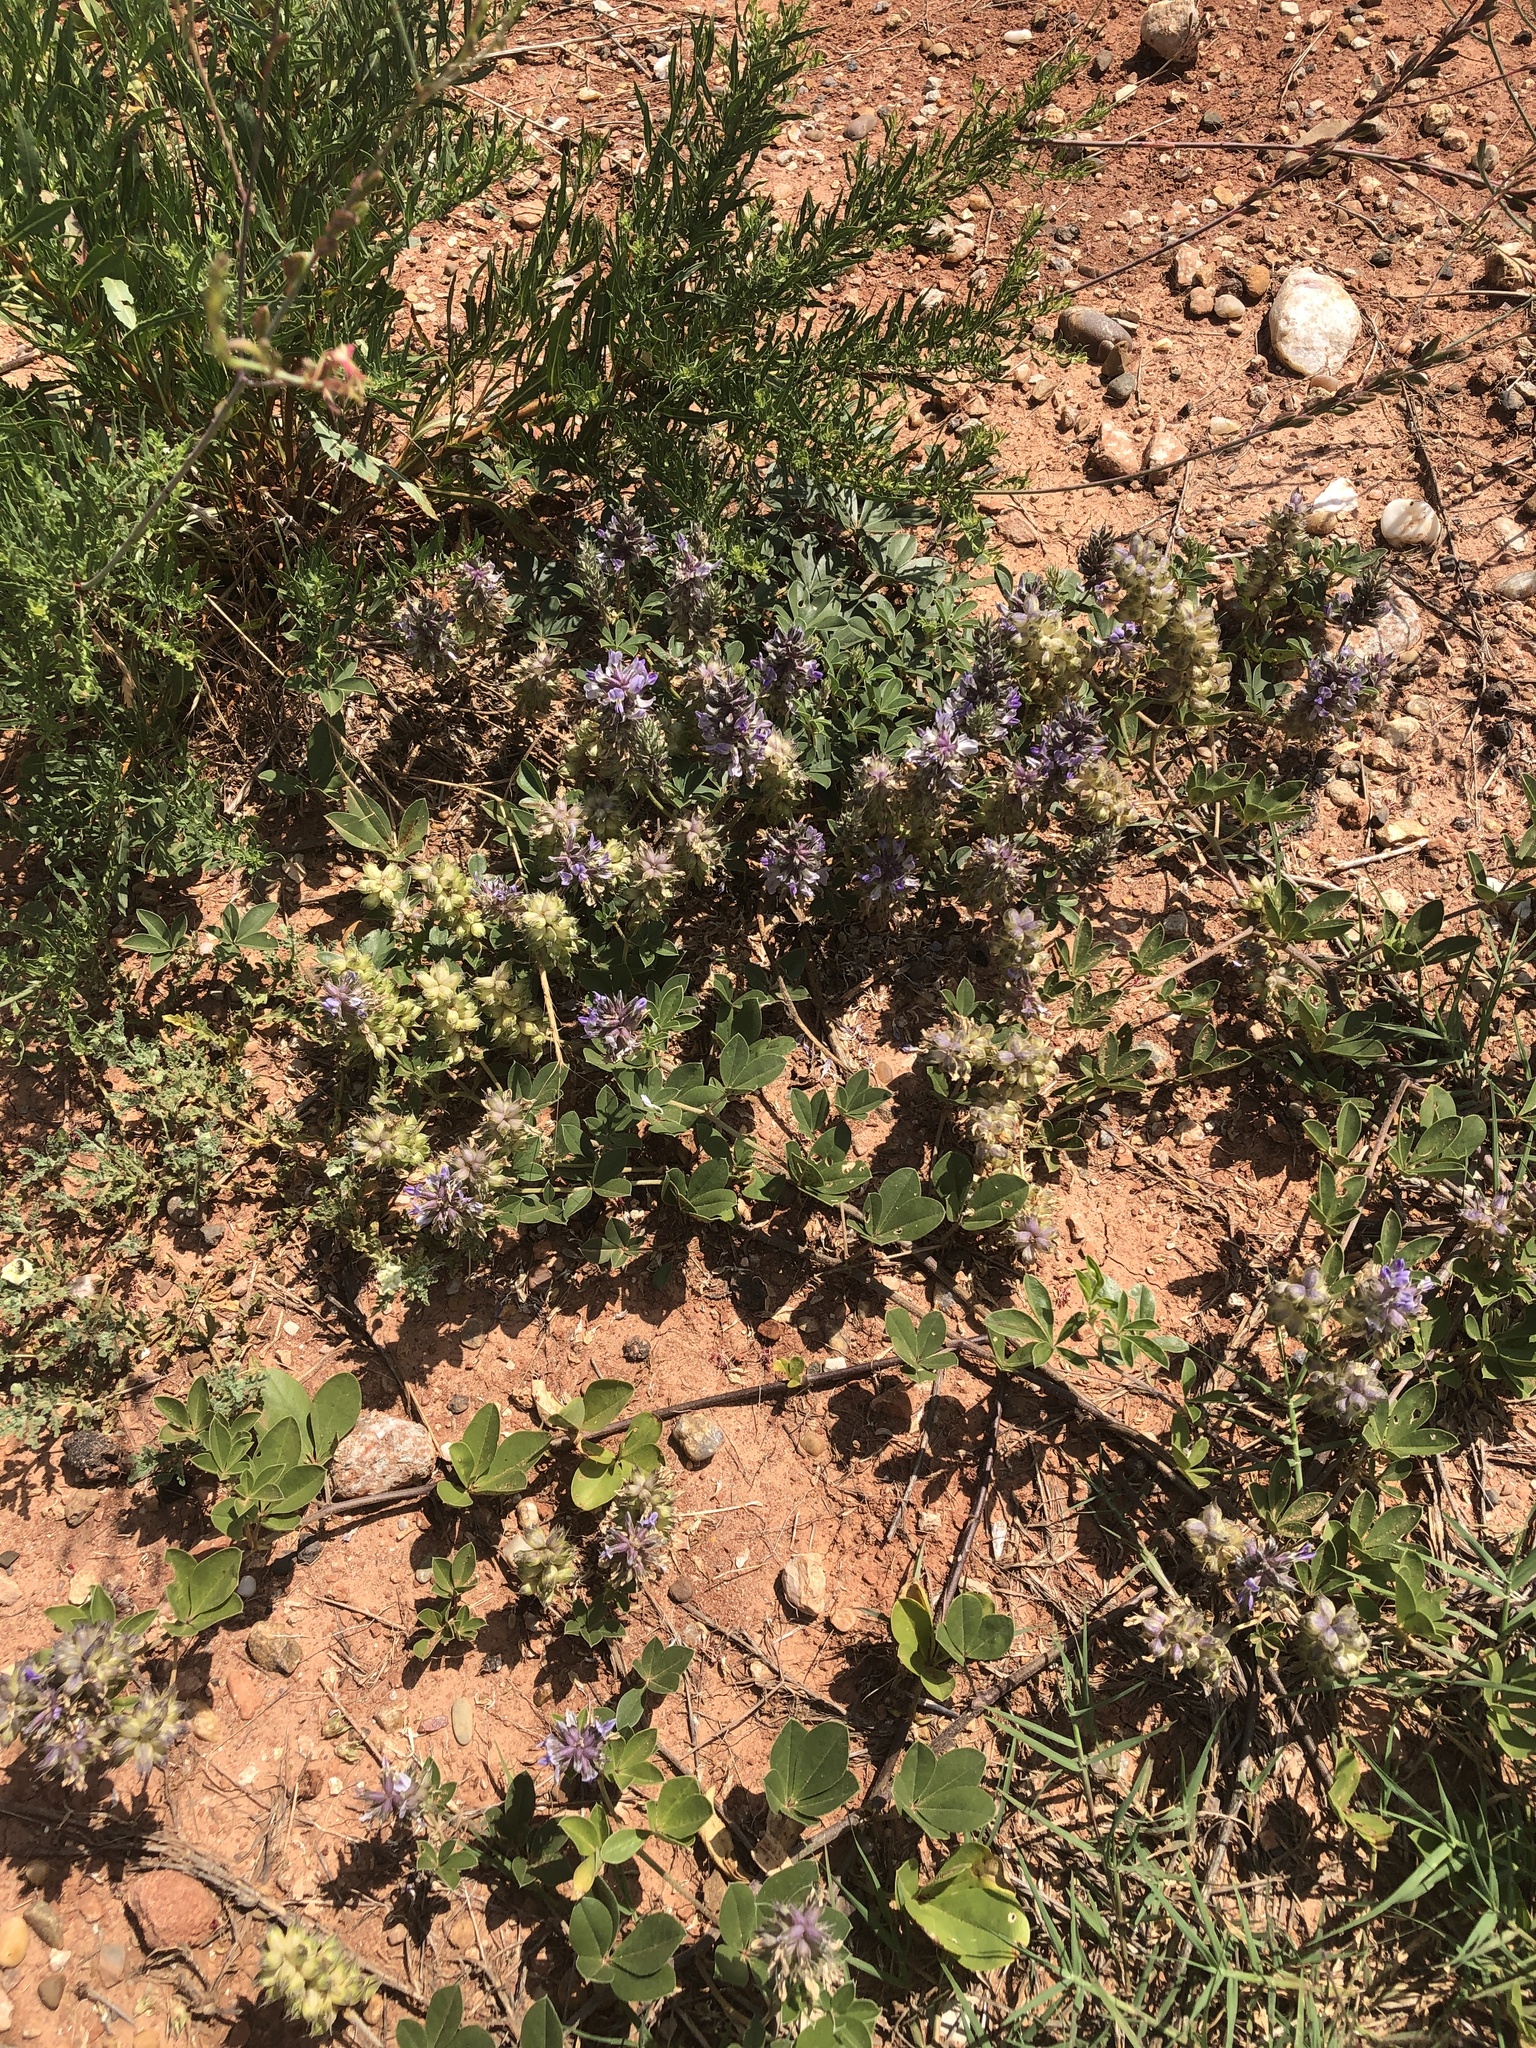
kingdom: Plantae
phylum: Tracheophyta
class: Magnoliopsida
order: Fabales
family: Fabaceae
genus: Pediomelum
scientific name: Pediomelum cuspidatum
